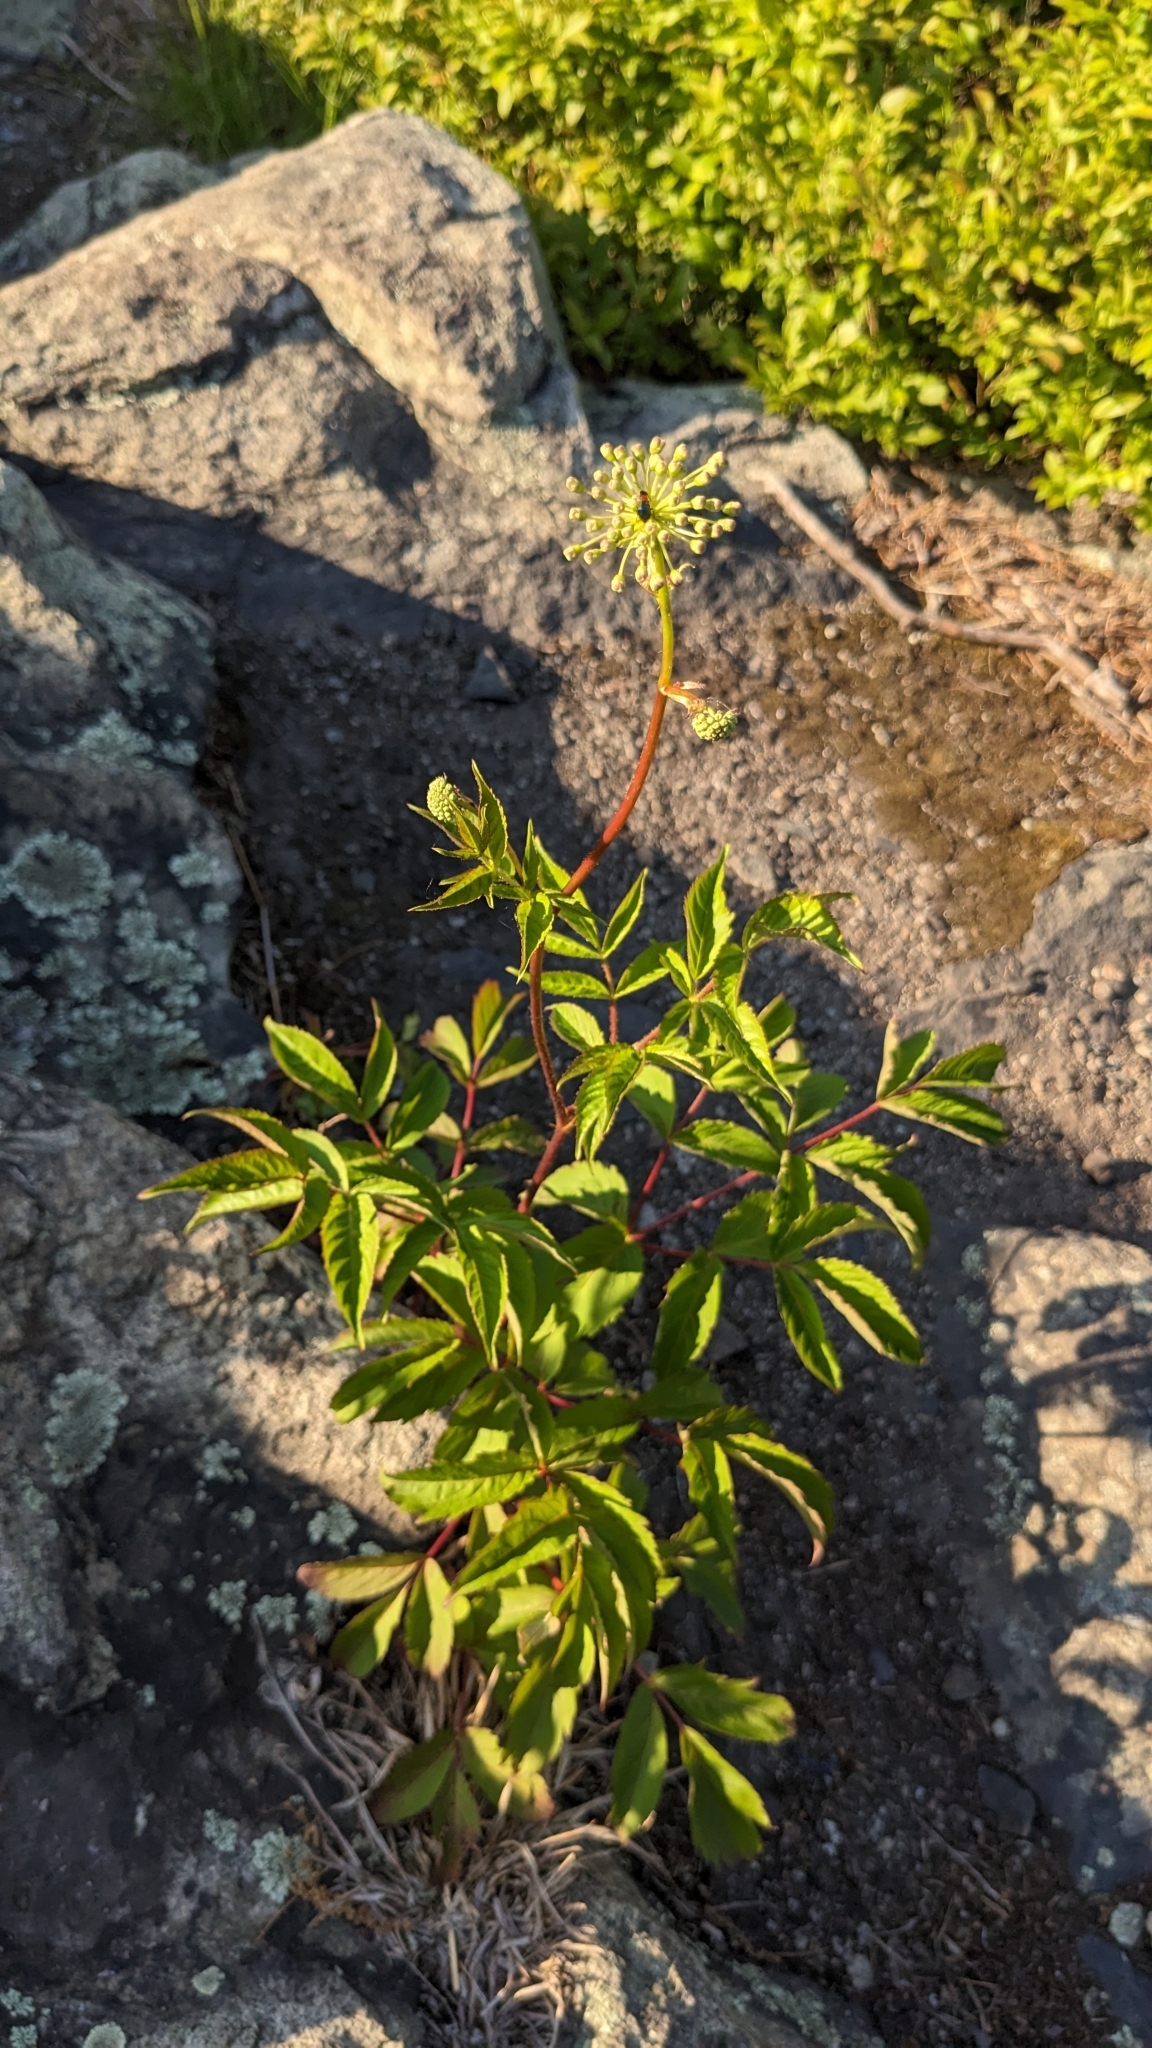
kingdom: Plantae
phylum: Tracheophyta
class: Magnoliopsida
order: Apiales
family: Araliaceae
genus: Aralia
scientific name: Aralia hispida
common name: Bristly sarsaparilla
